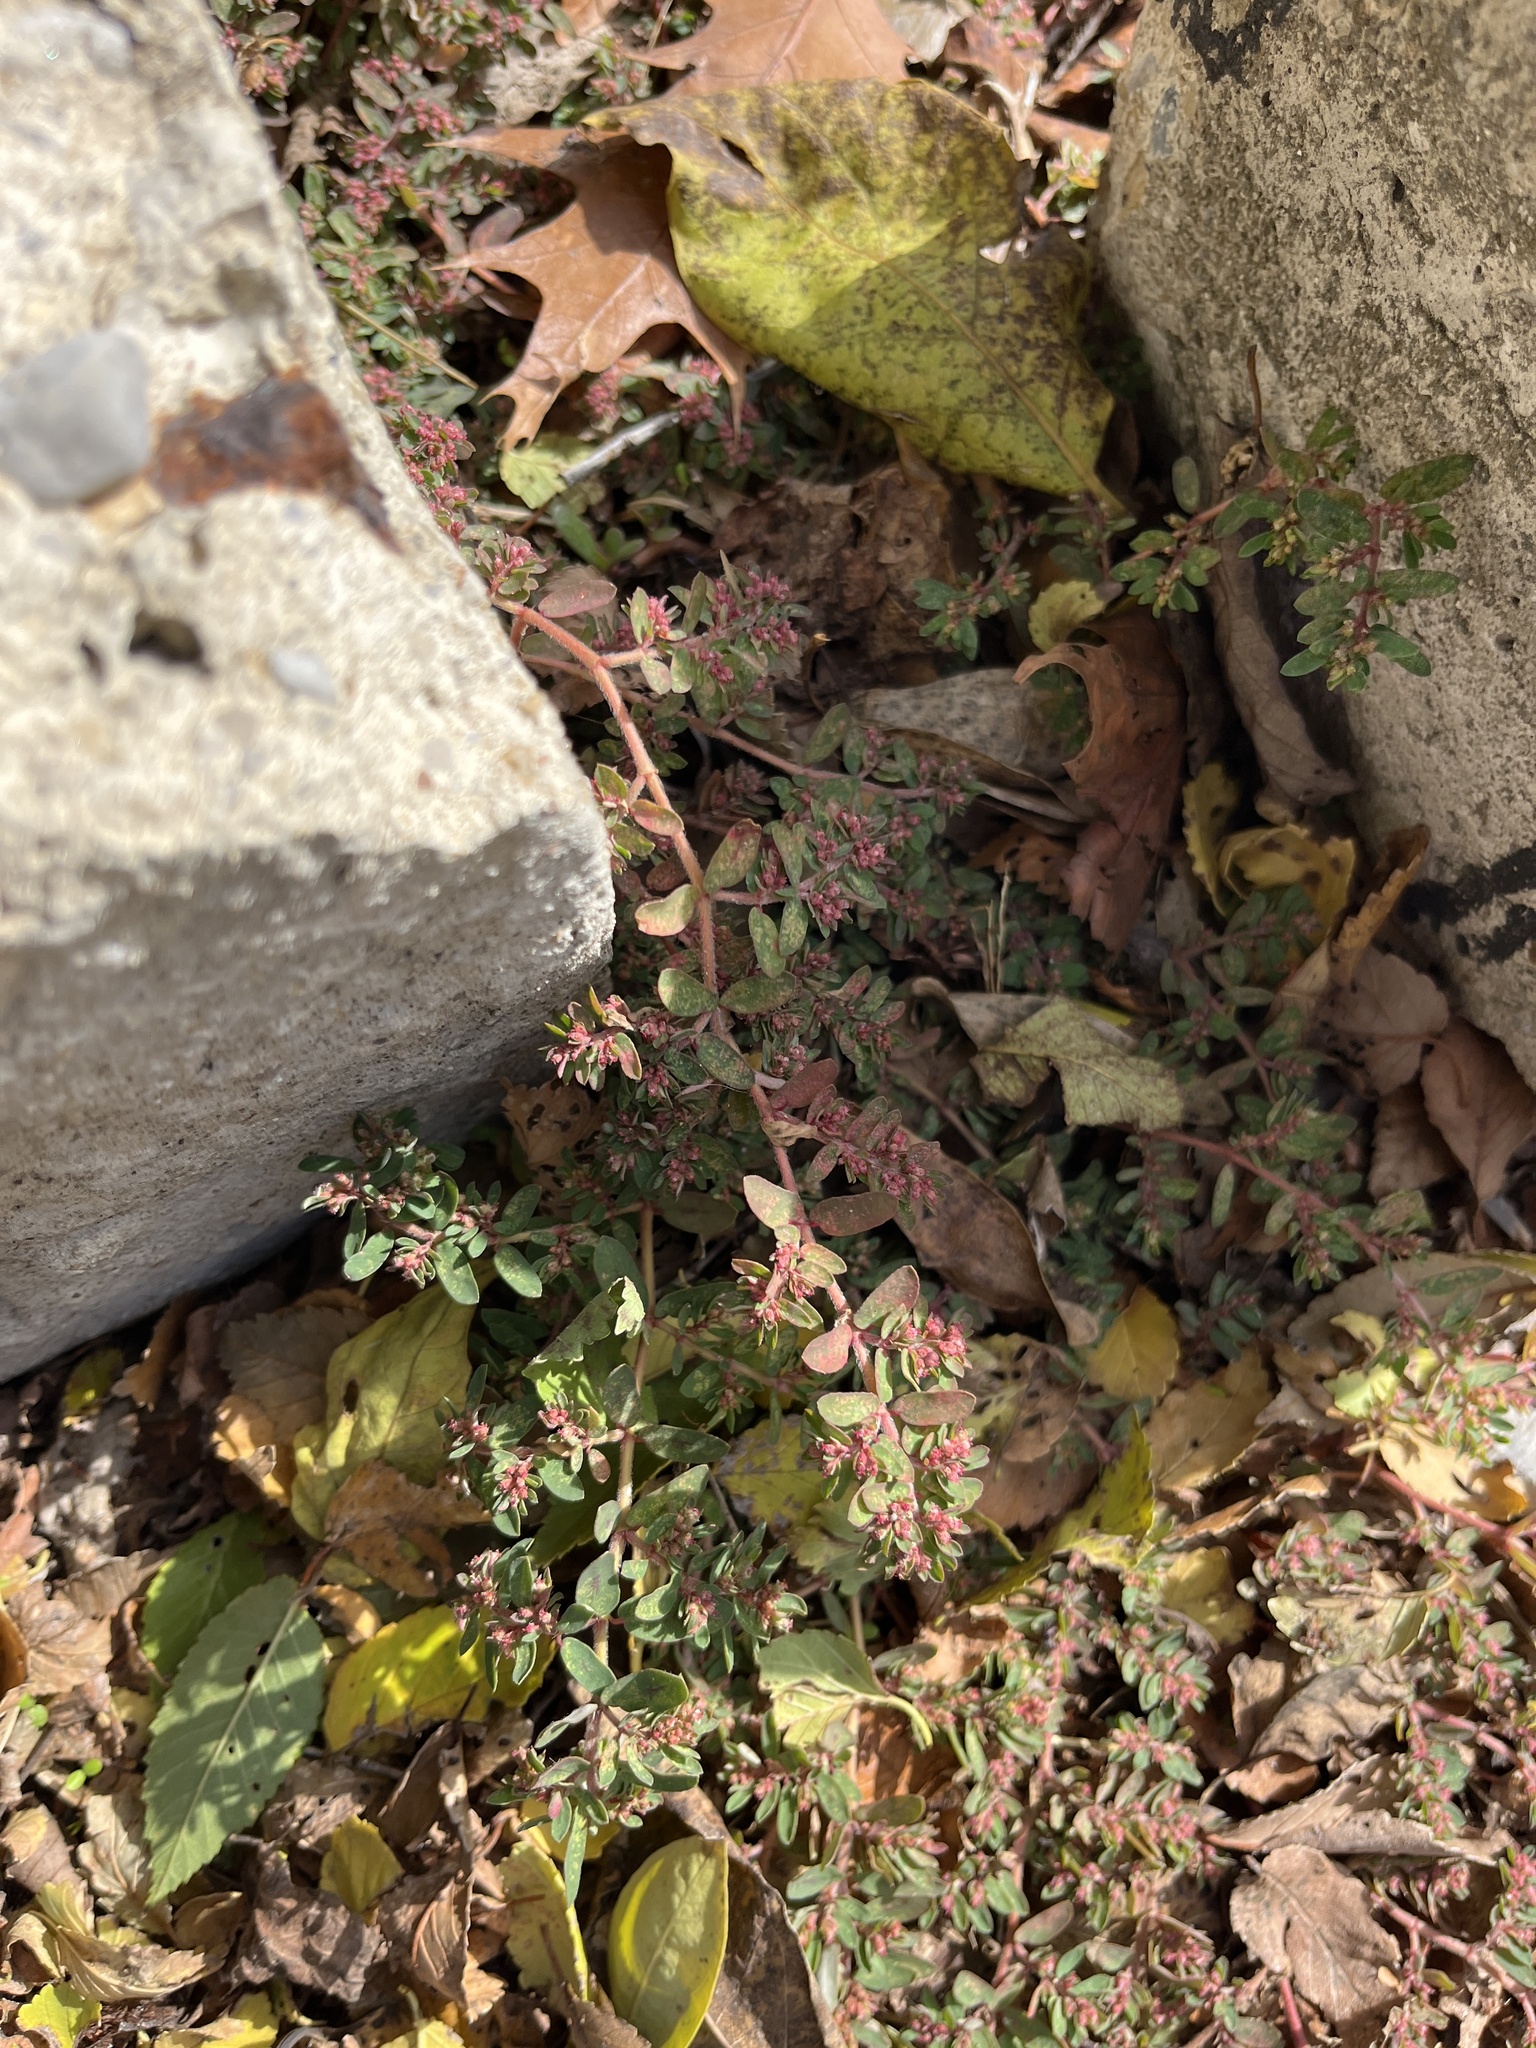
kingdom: Plantae
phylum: Tracheophyta
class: Magnoliopsida
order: Malpighiales
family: Euphorbiaceae
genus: Euphorbia
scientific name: Euphorbia maculata
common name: Spotted spurge
